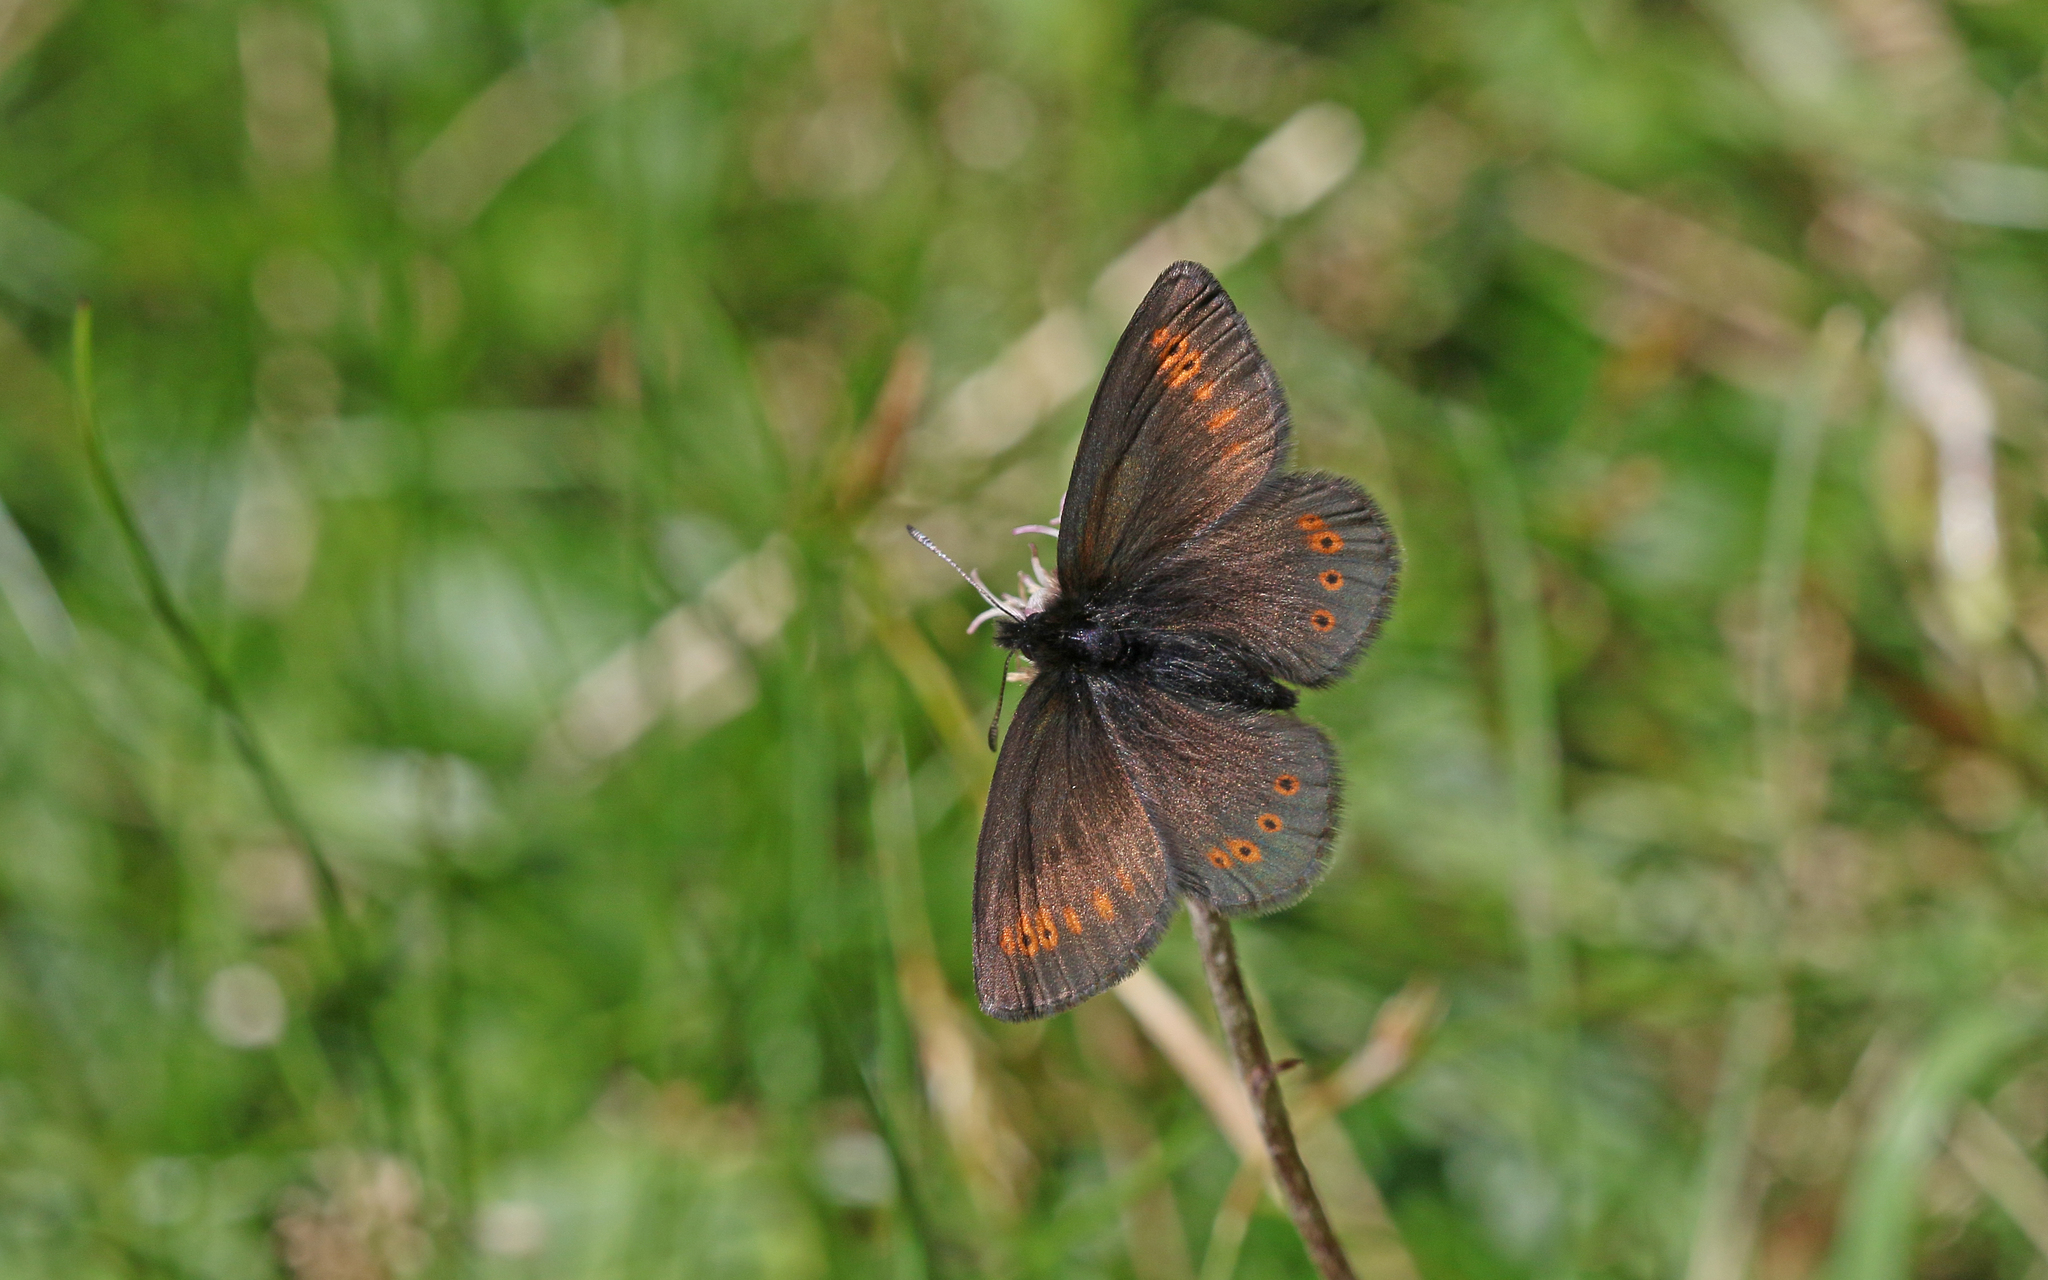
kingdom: Animalia
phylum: Arthropoda
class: Insecta
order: Lepidoptera
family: Nymphalidae
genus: Erebia
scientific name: Erebia flavofasciata
